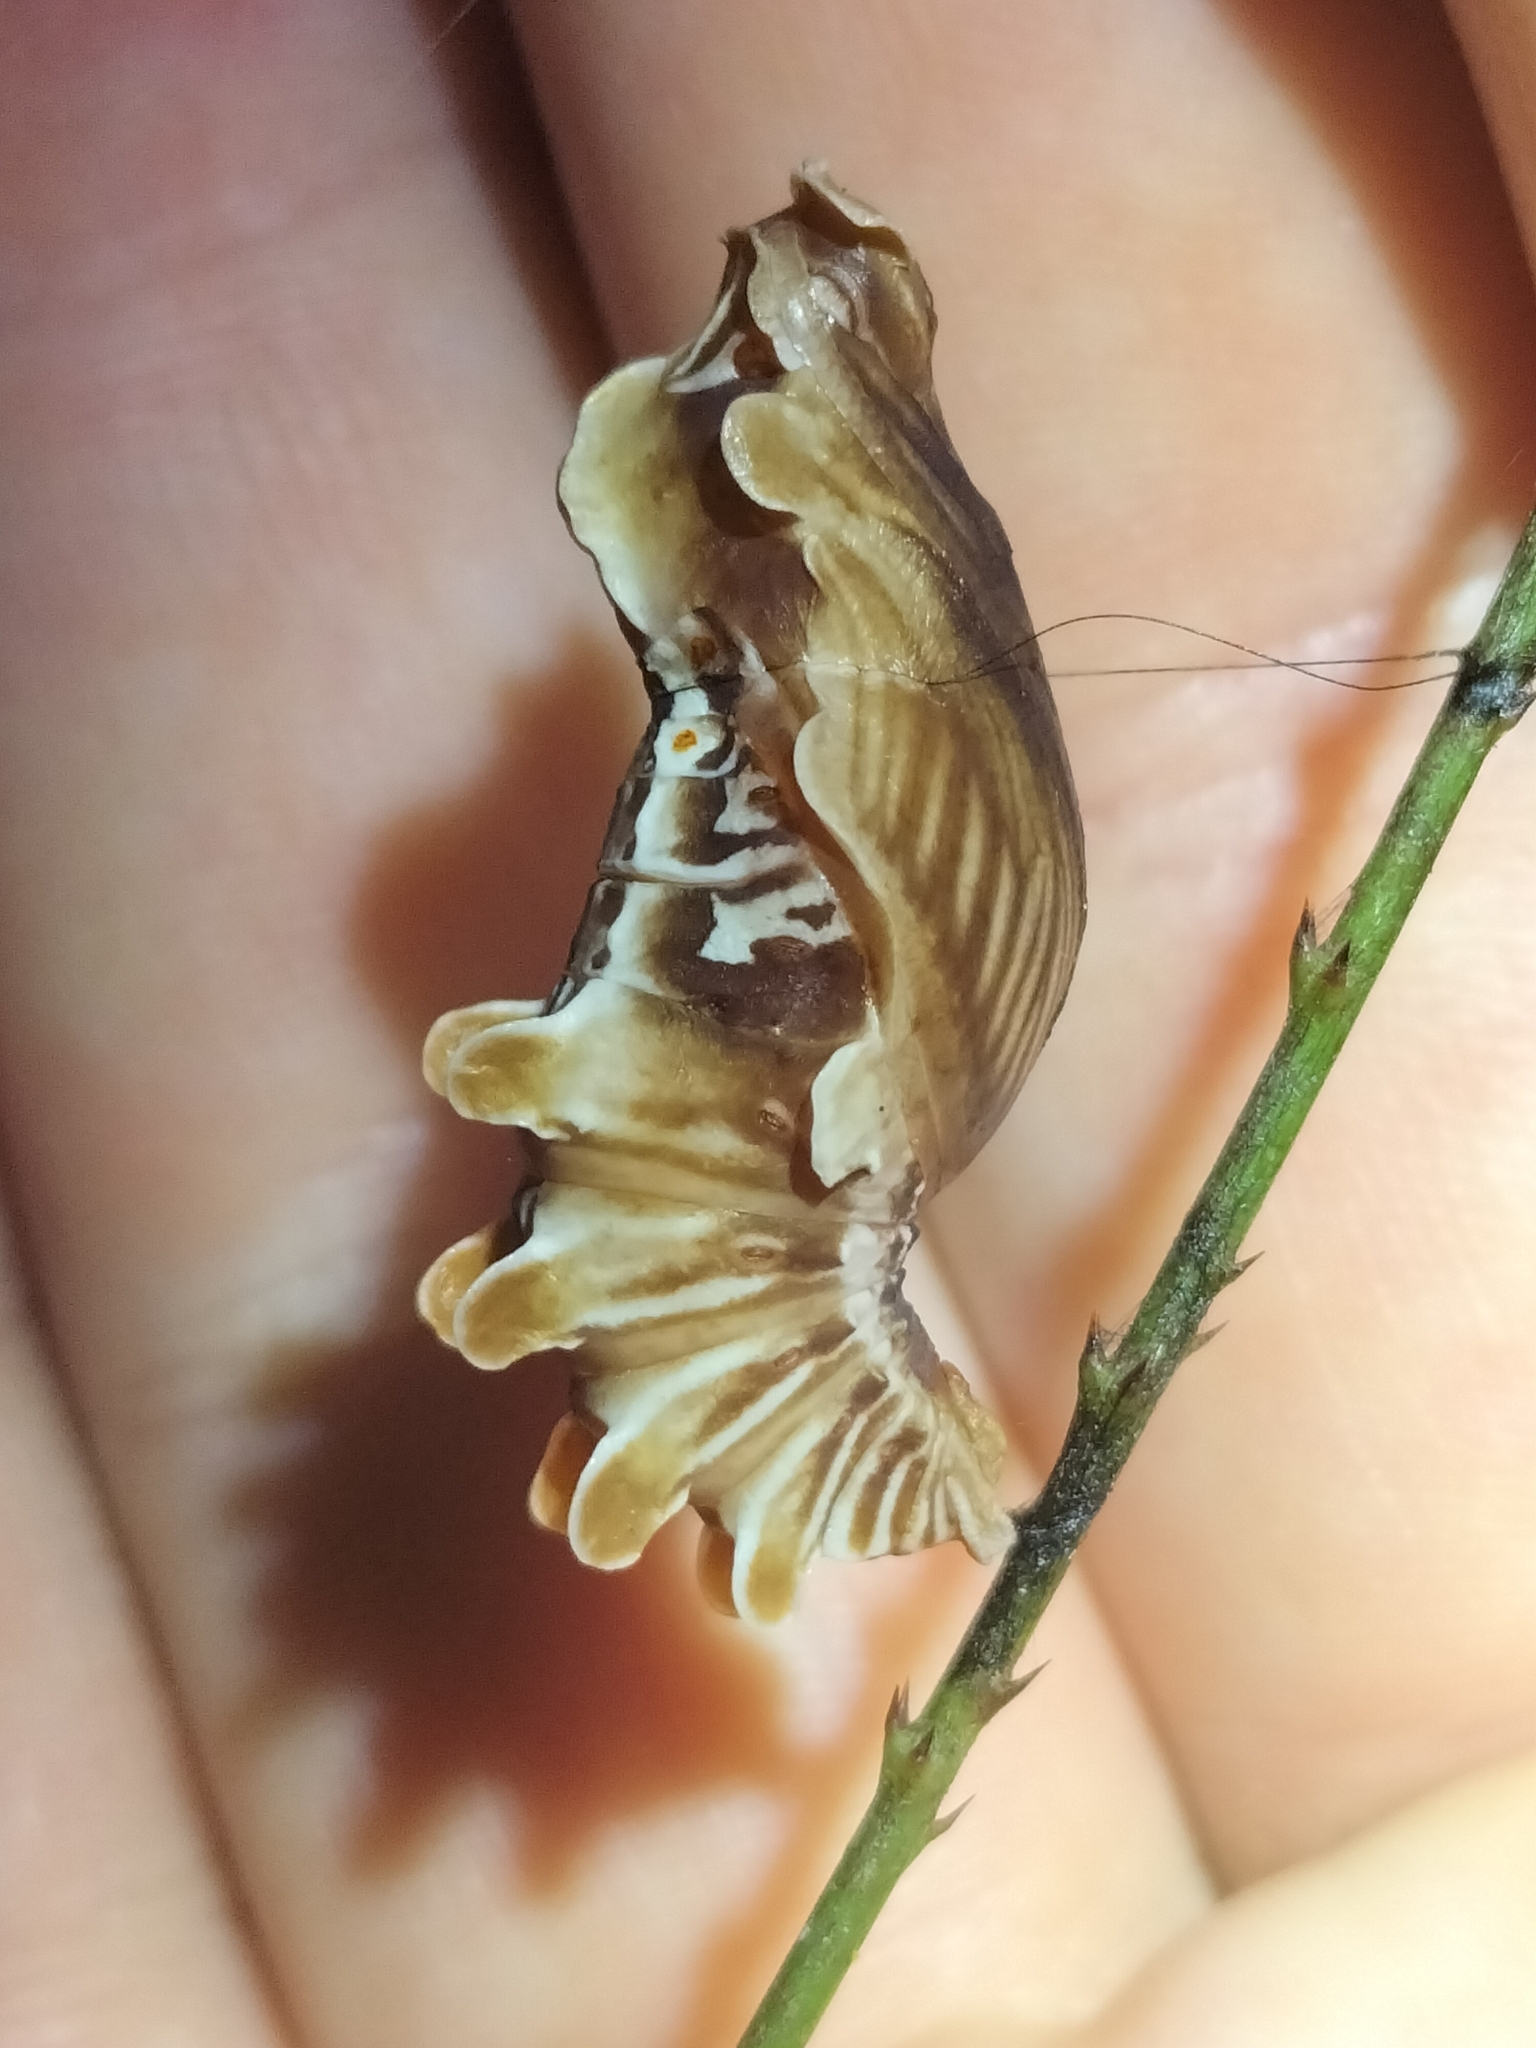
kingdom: Animalia
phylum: Arthropoda
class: Insecta
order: Lepidoptera
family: Papilionidae
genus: Pachliopta
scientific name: Pachliopta polydorus
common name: Red-bodied swallowtail
